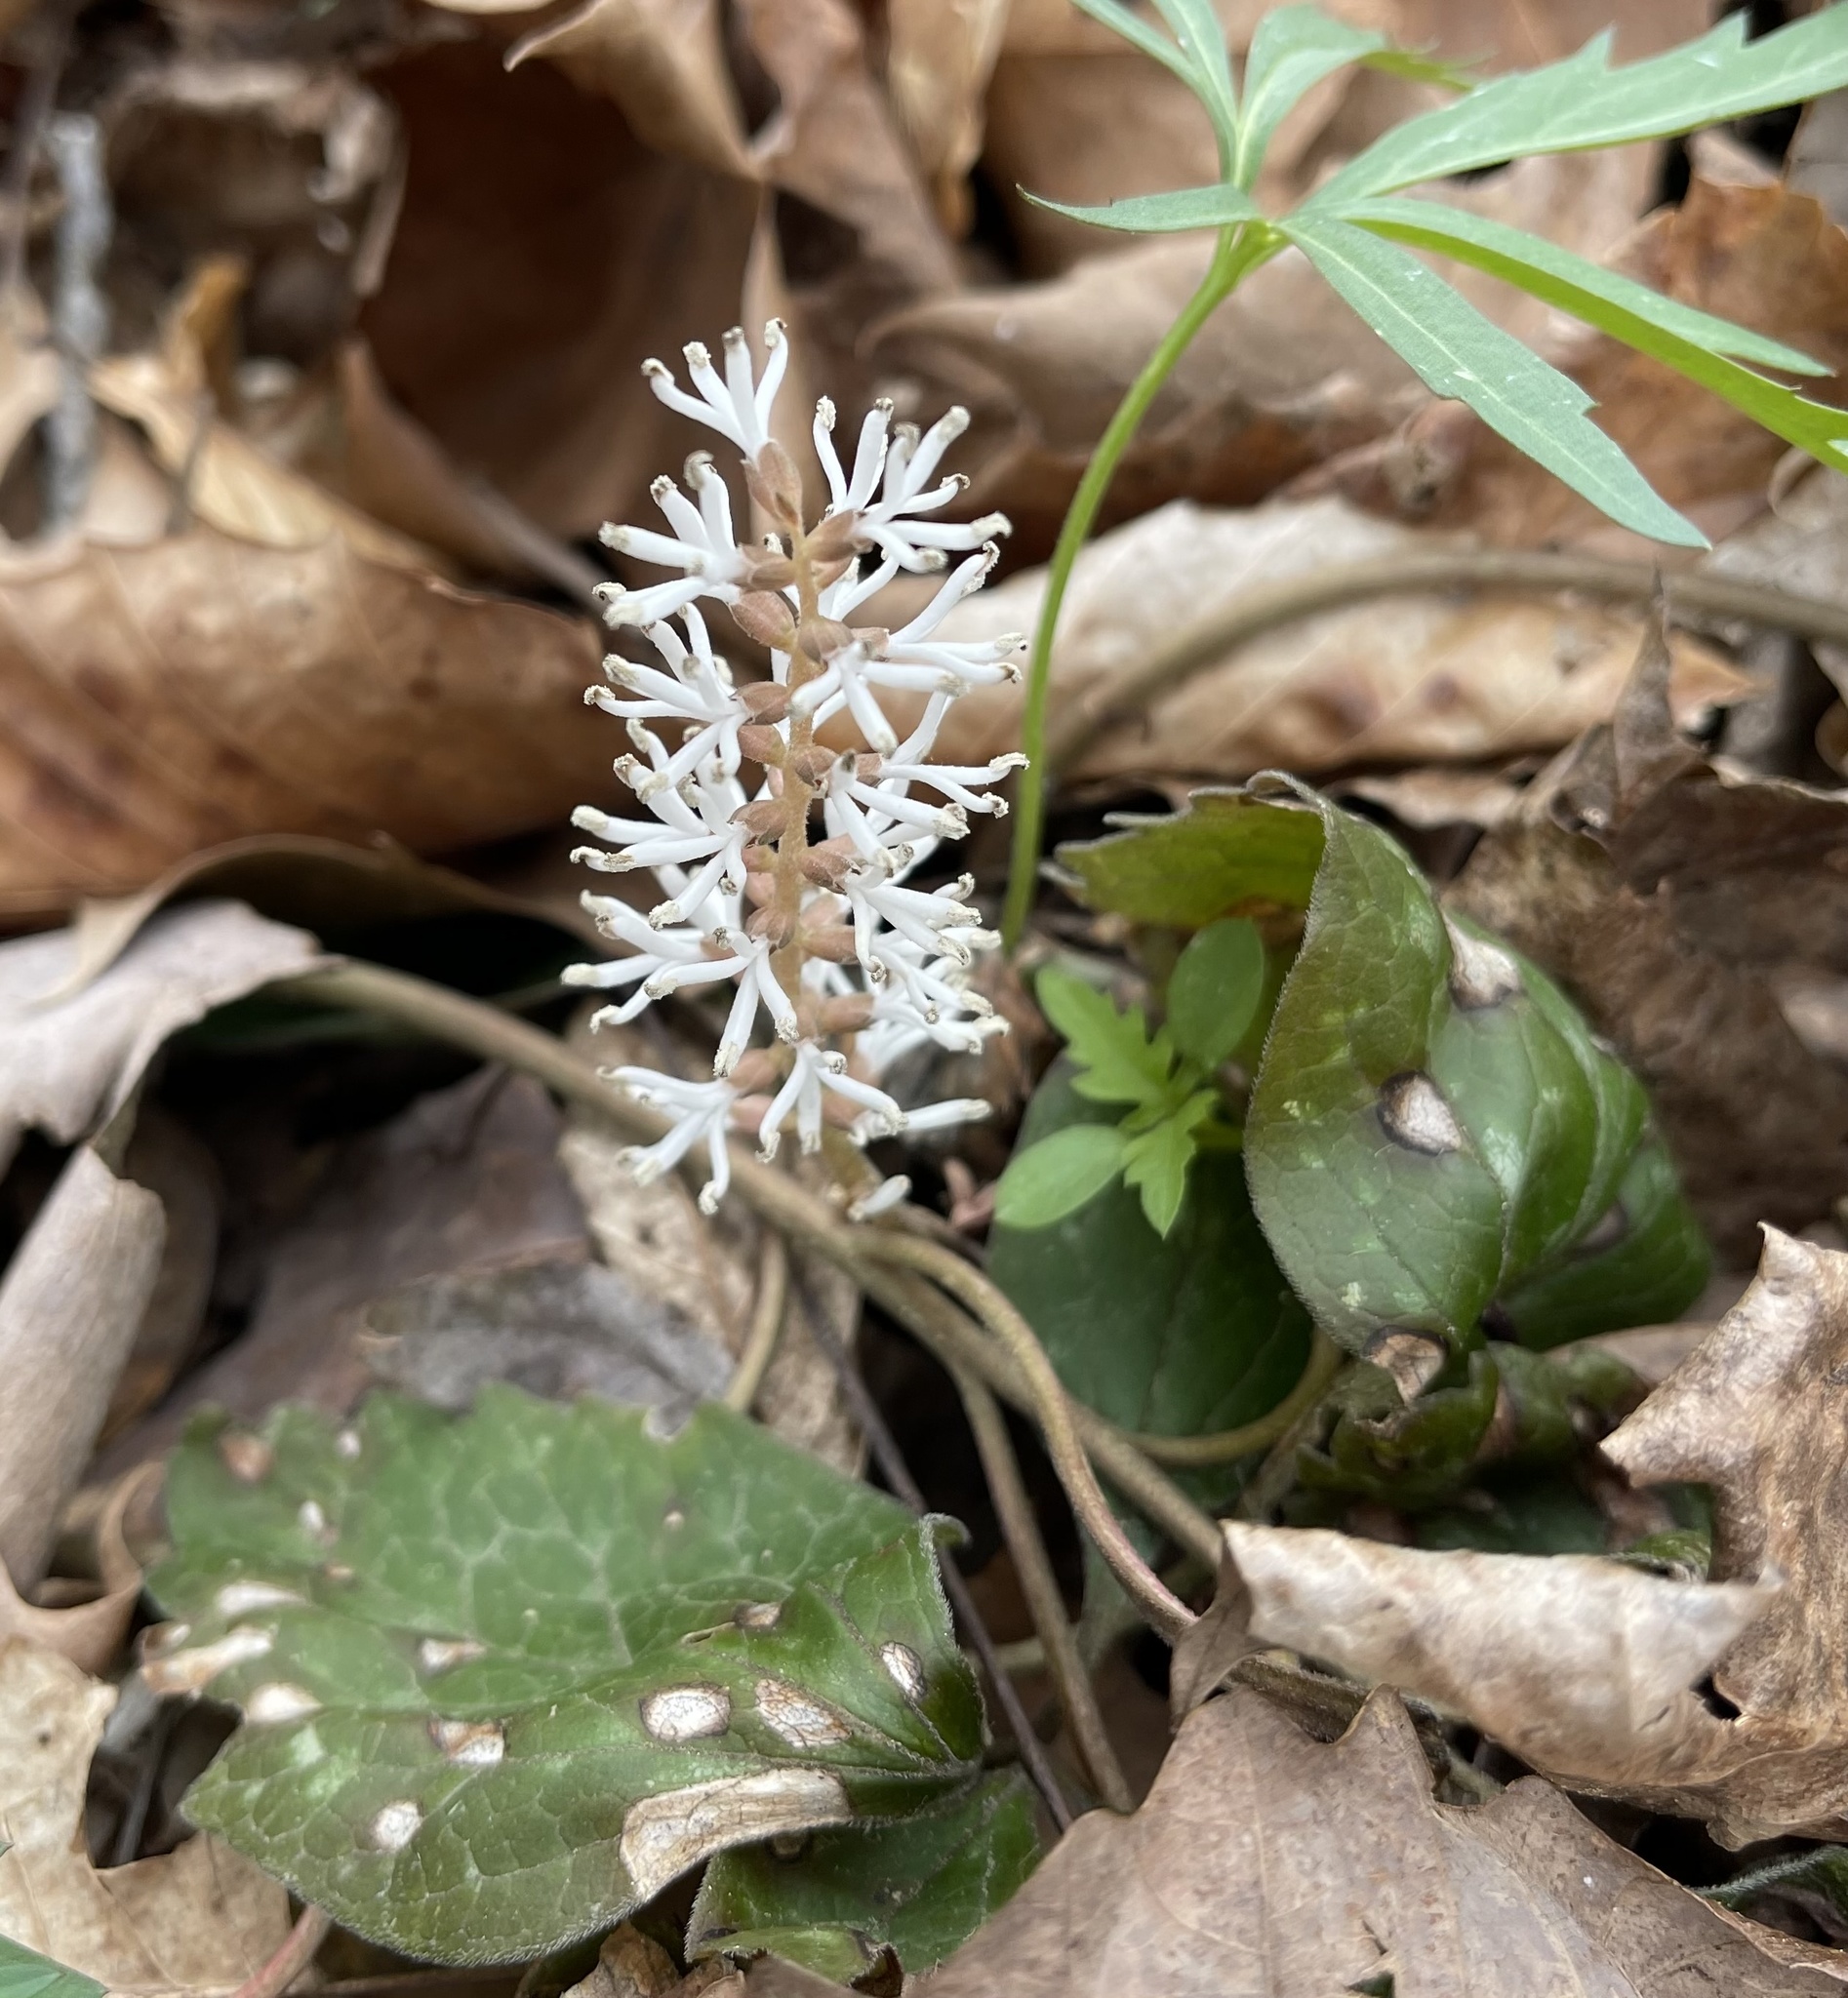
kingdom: Plantae
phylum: Tracheophyta
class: Magnoliopsida
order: Buxales
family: Buxaceae
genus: Pachysandra
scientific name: Pachysandra procumbens
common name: Mountain-spurge
